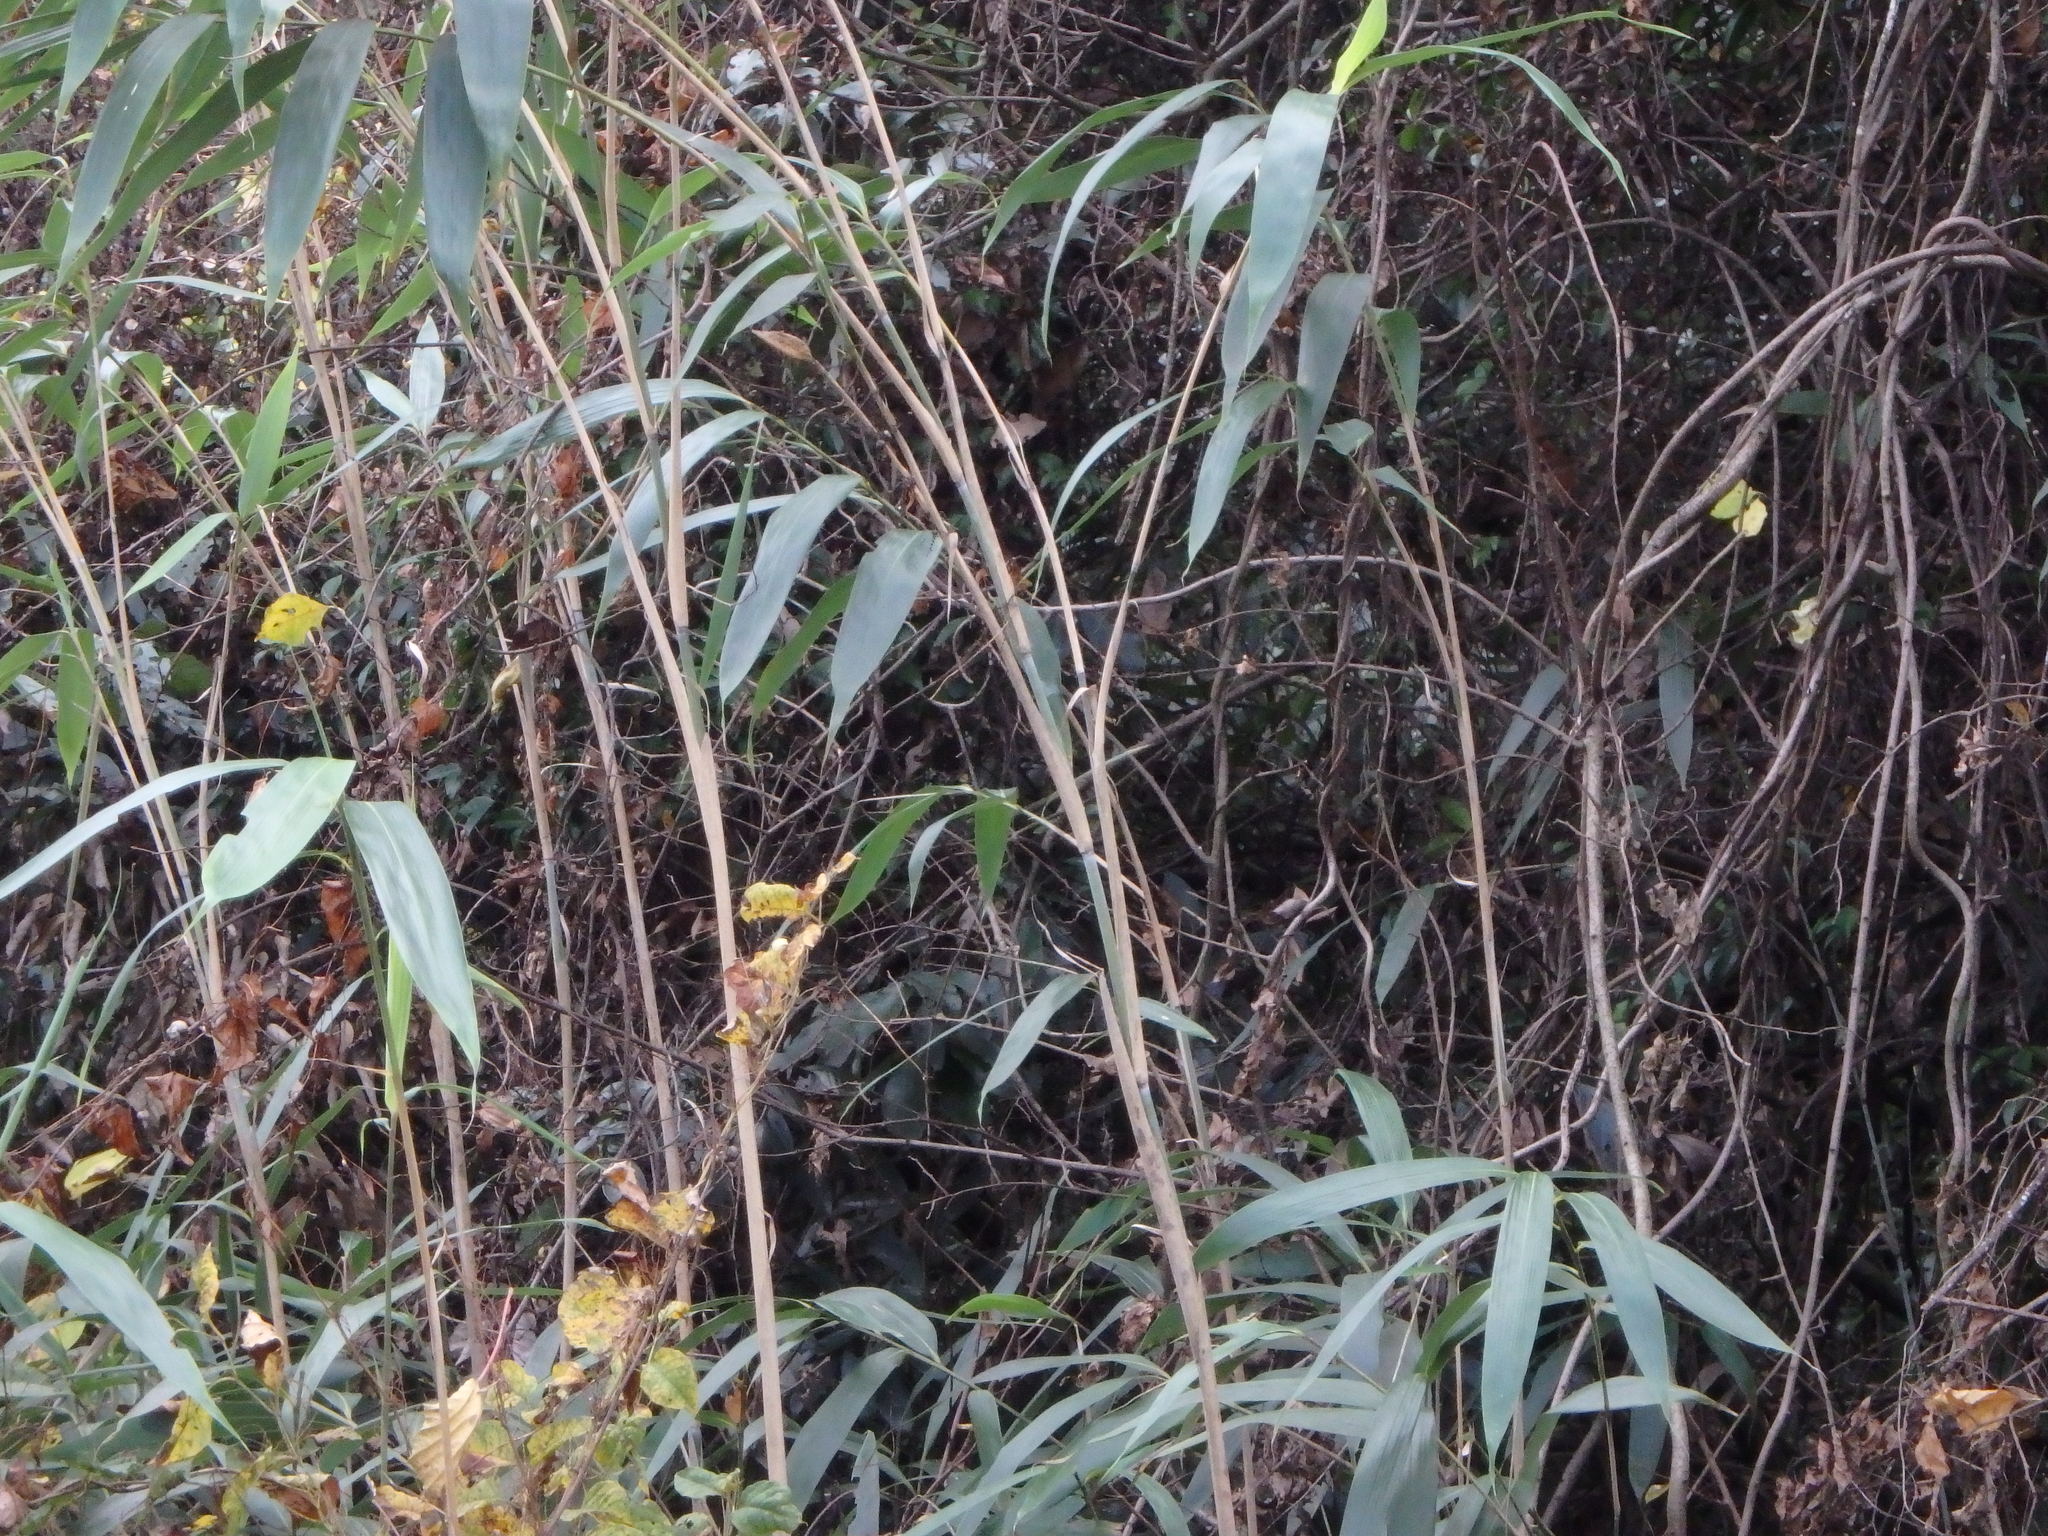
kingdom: Plantae
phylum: Tracheophyta
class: Liliopsida
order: Poales
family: Poaceae
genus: Pseudosasa
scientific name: Pseudosasa japonica
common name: Arrow bamboo
